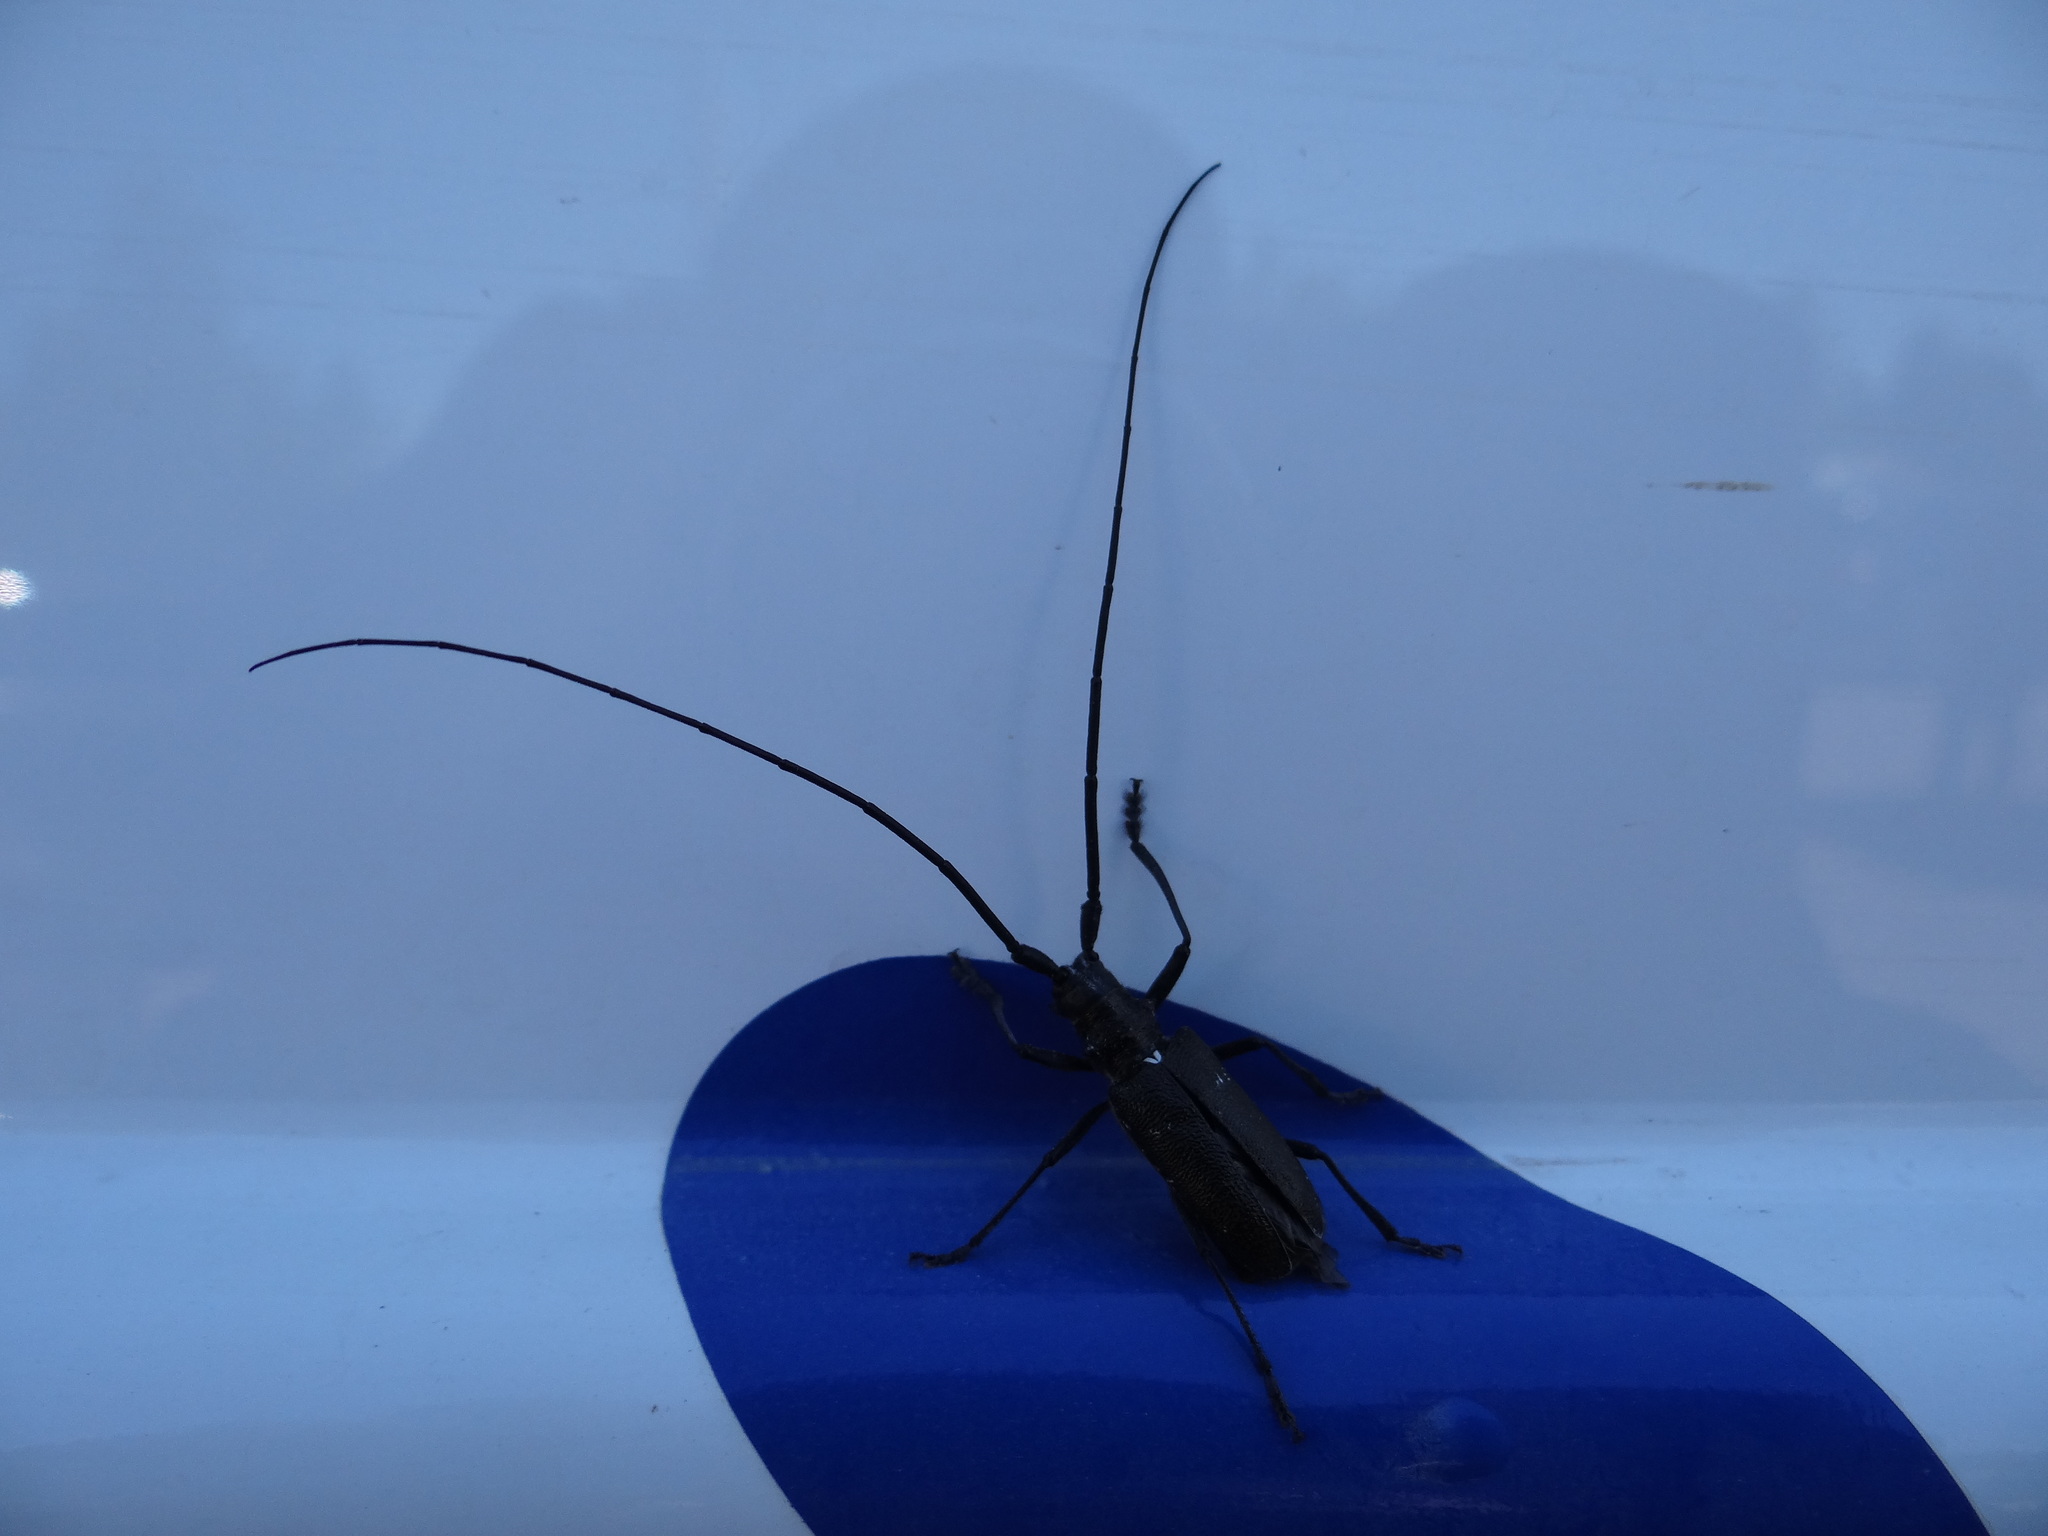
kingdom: Animalia
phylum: Arthropoda
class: Insecta
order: Coleoptera
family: Cerambycidae
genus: Monochamus
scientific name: Monochamus scutellatus
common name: White-spotted sawyer beetle
